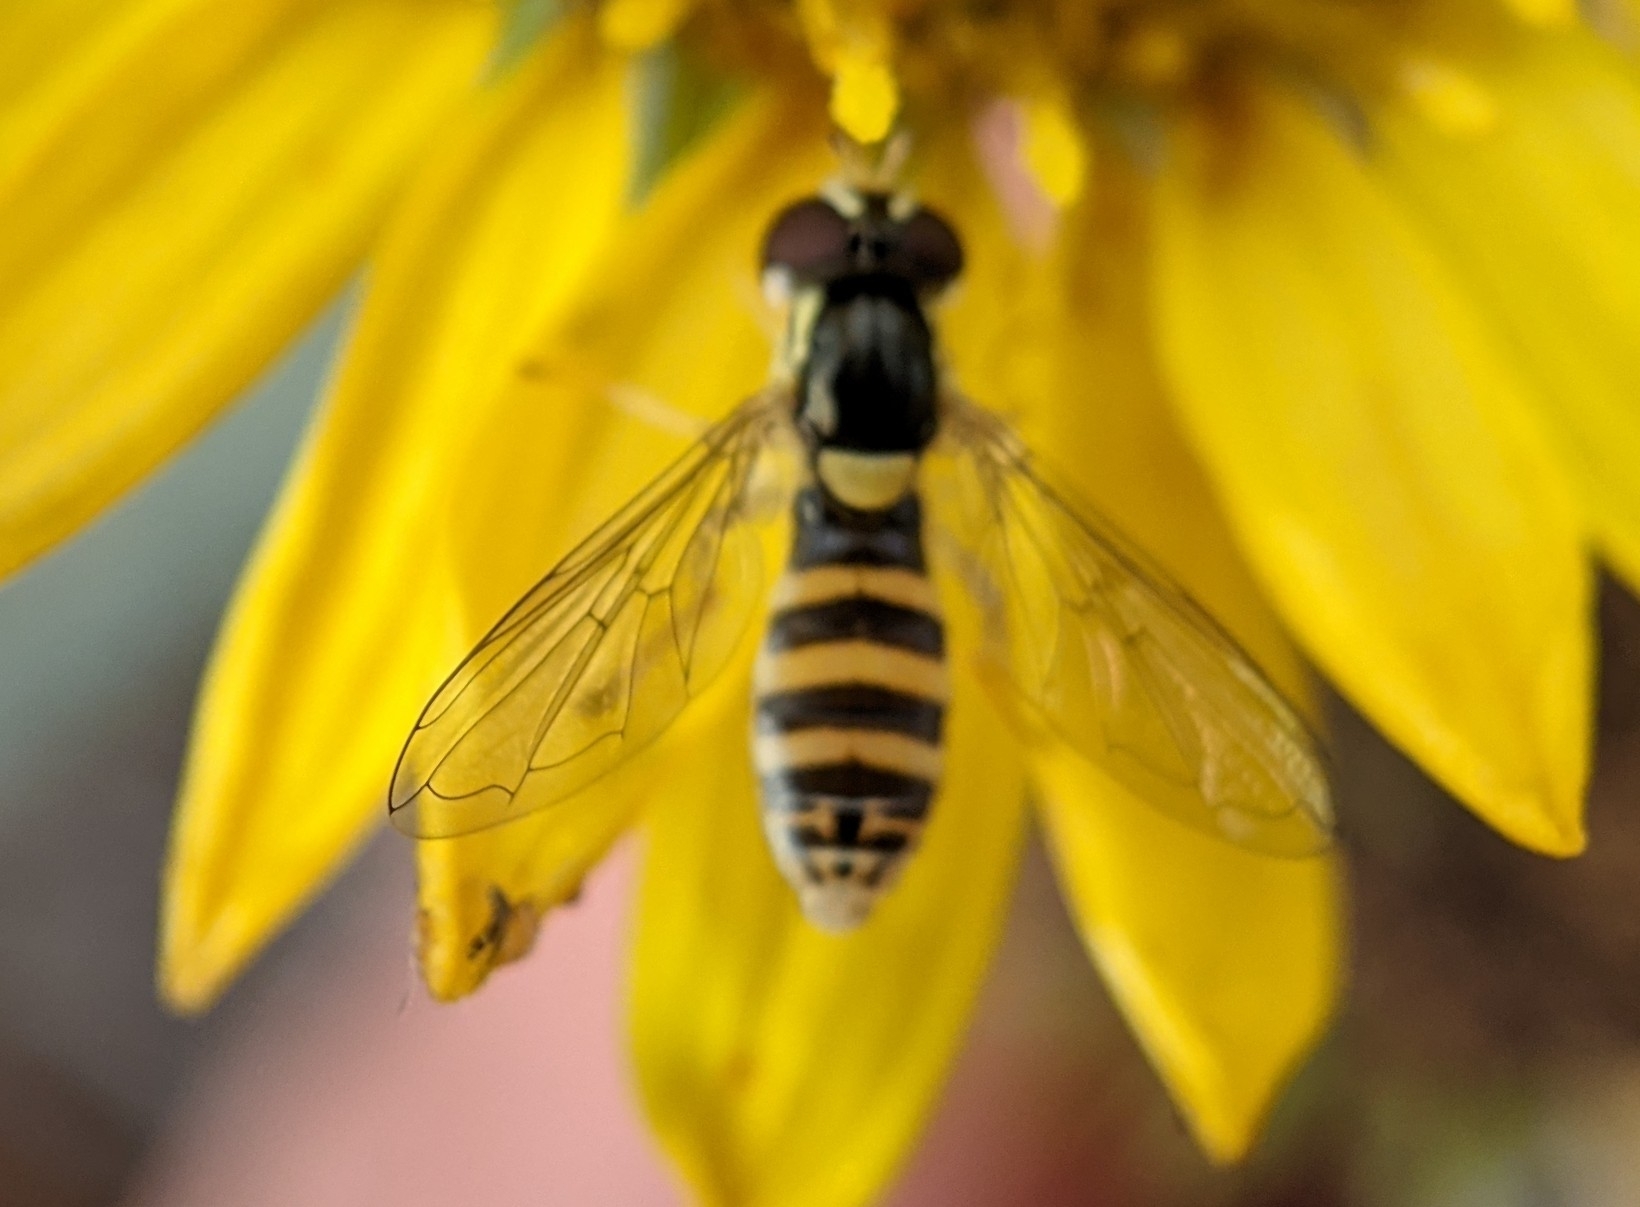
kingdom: Animalia
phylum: Arthropoda
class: Insecta
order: Diptera
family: Syrphidae
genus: Sphaerophoria
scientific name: Sphaerophoria sulphuripes
